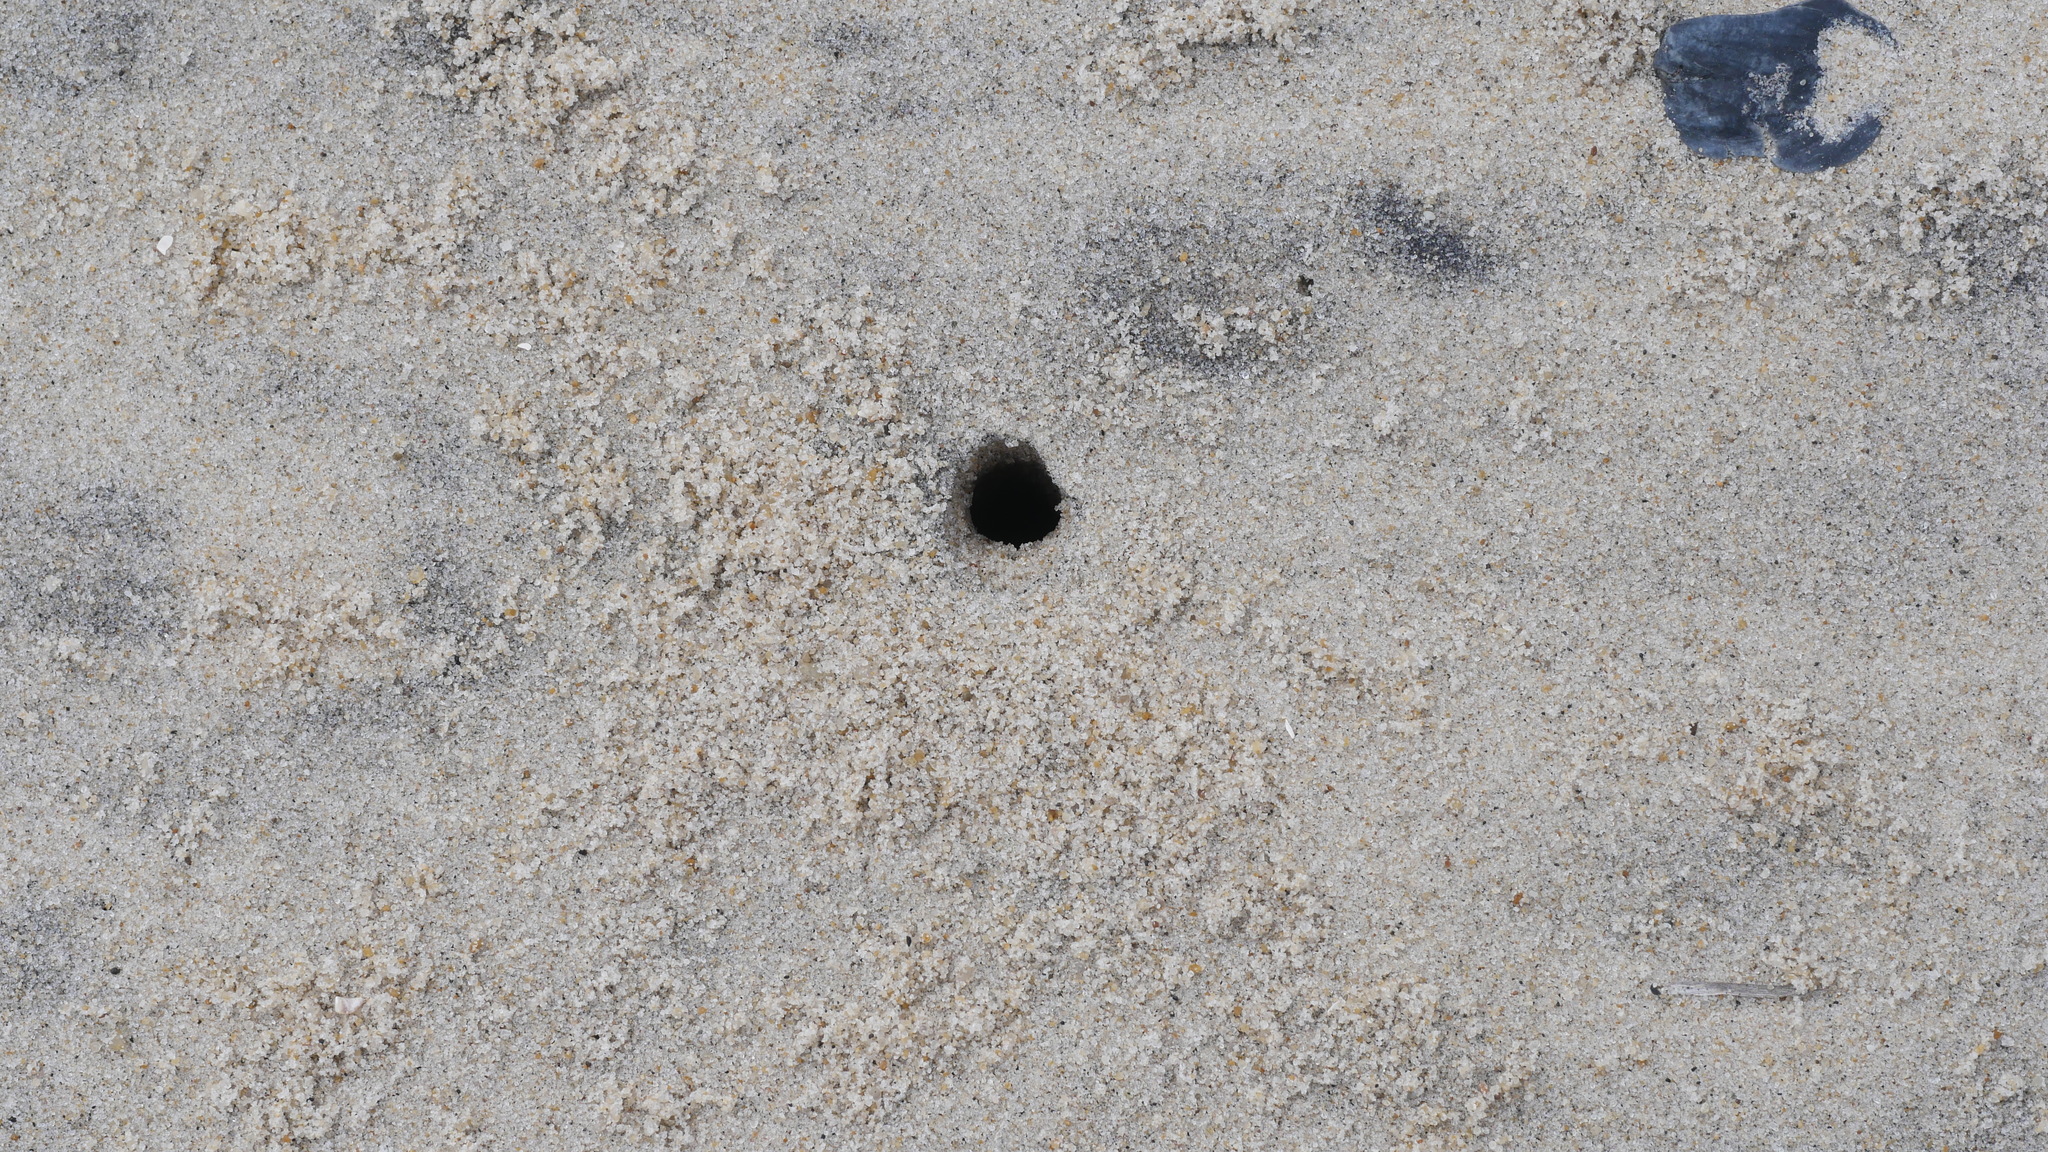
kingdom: Animalia
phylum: Arthropoda
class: Malacostraca
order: Decapoda
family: Ocypodidae
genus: Ocypode
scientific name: Ocypode quadrata
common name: Ghost crab
